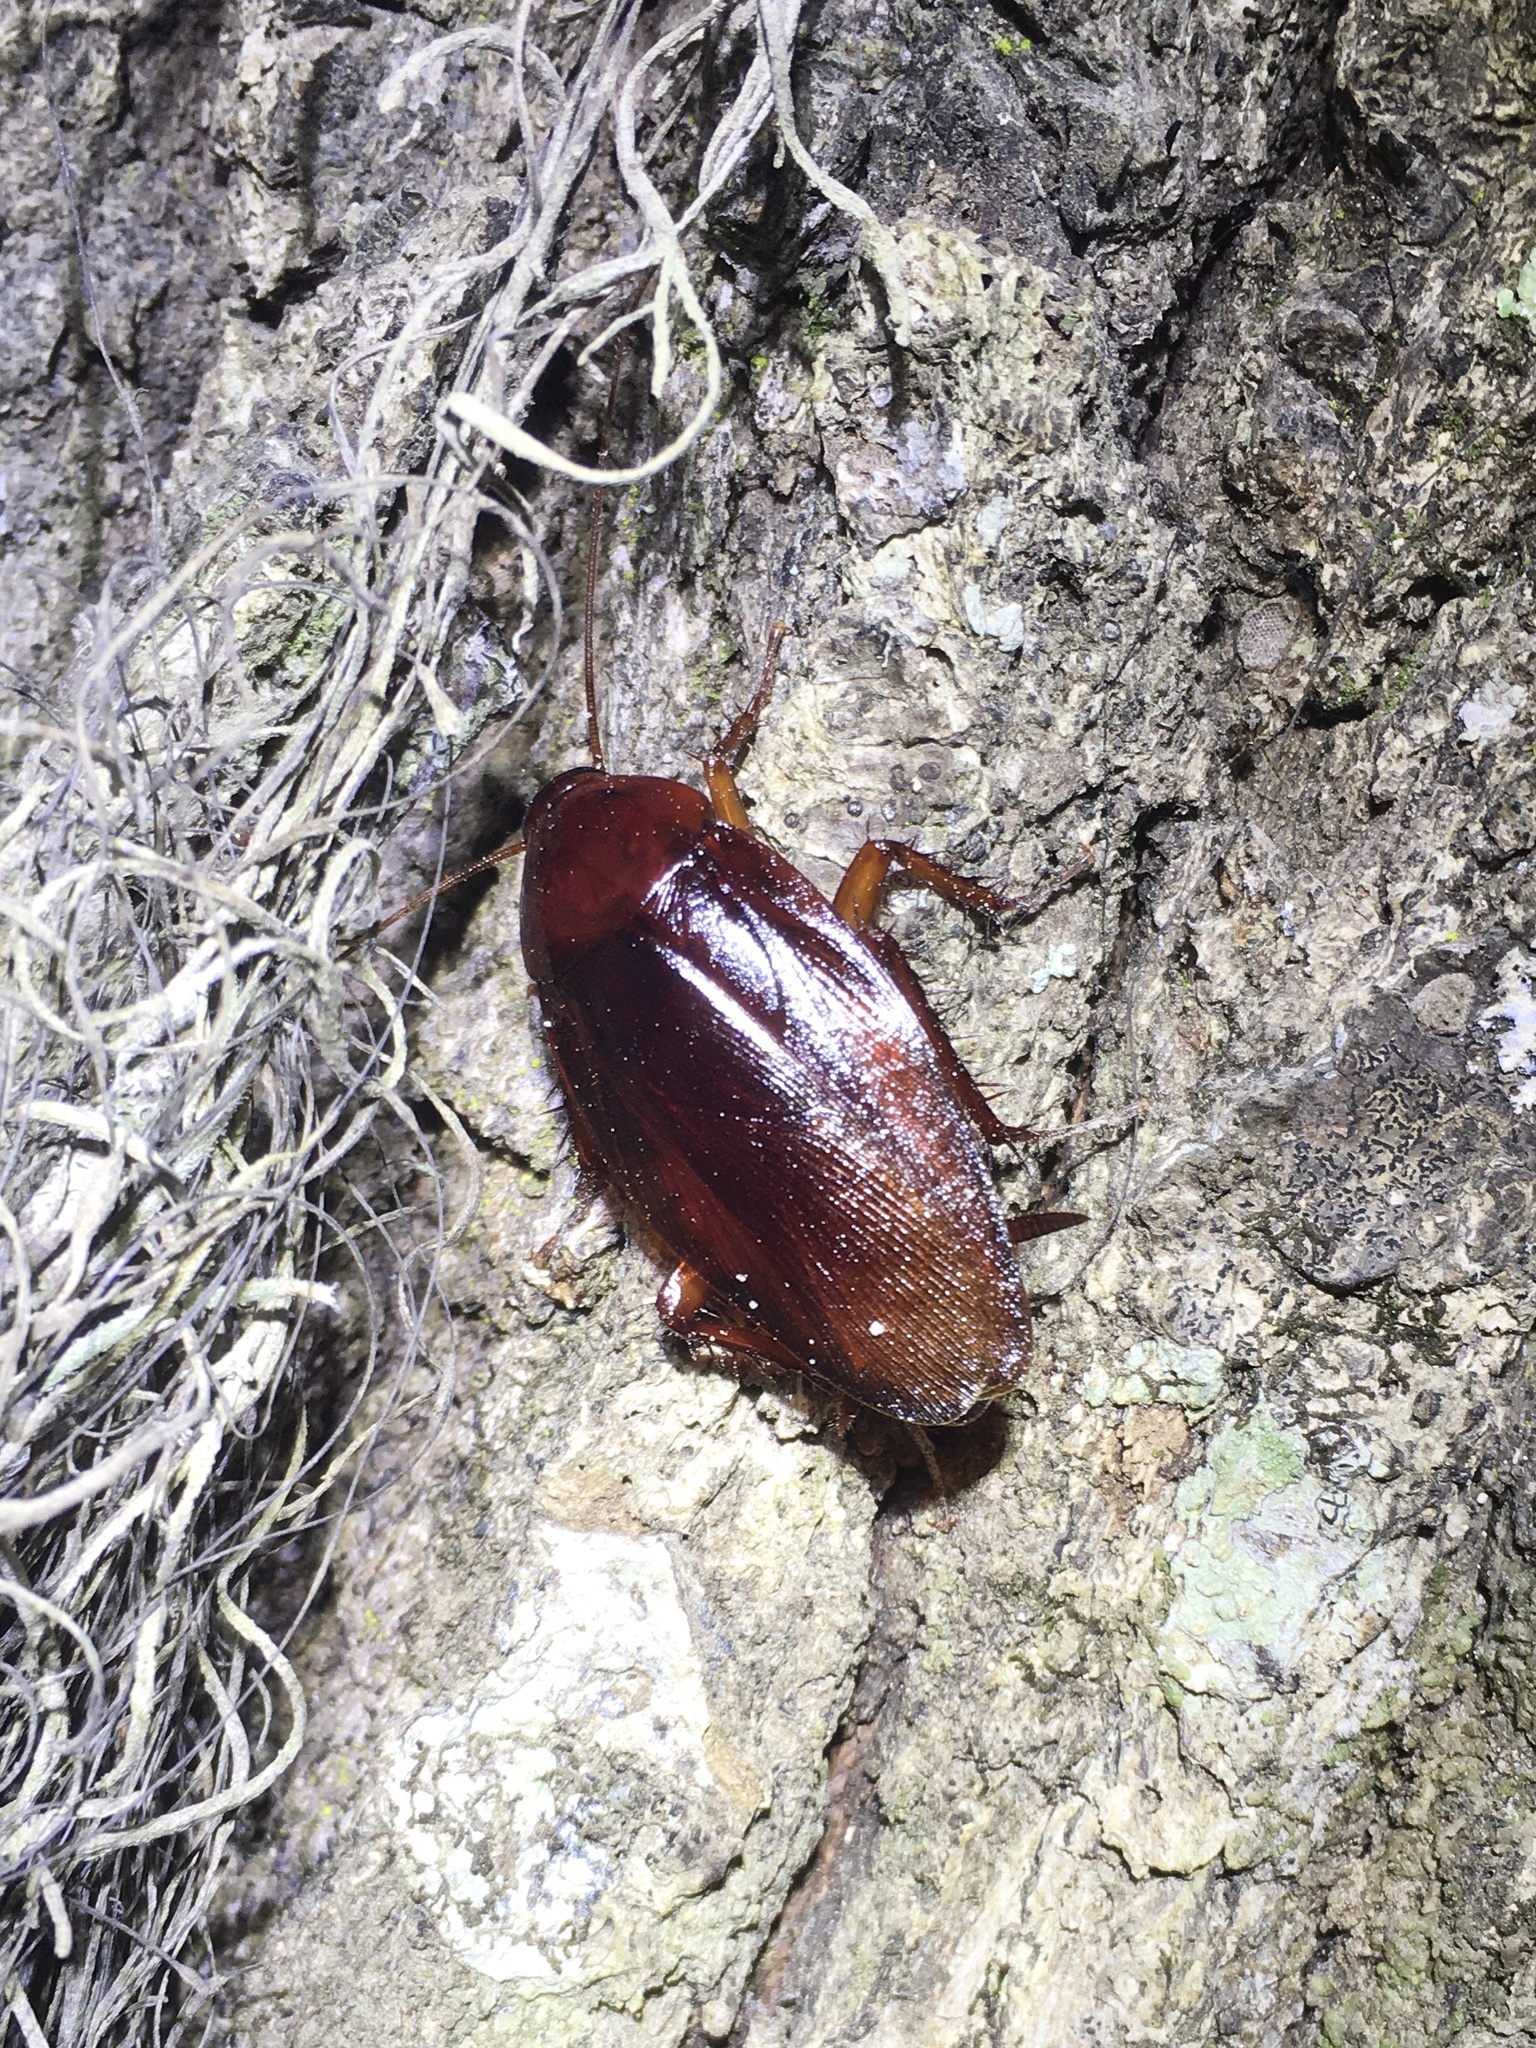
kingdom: Animalia
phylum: Arthropoda
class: Insecta
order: Blattodea
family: Blattidae
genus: Periplaneta
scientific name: Periplaneta fuliginosa
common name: Smokeybrown cockroad
